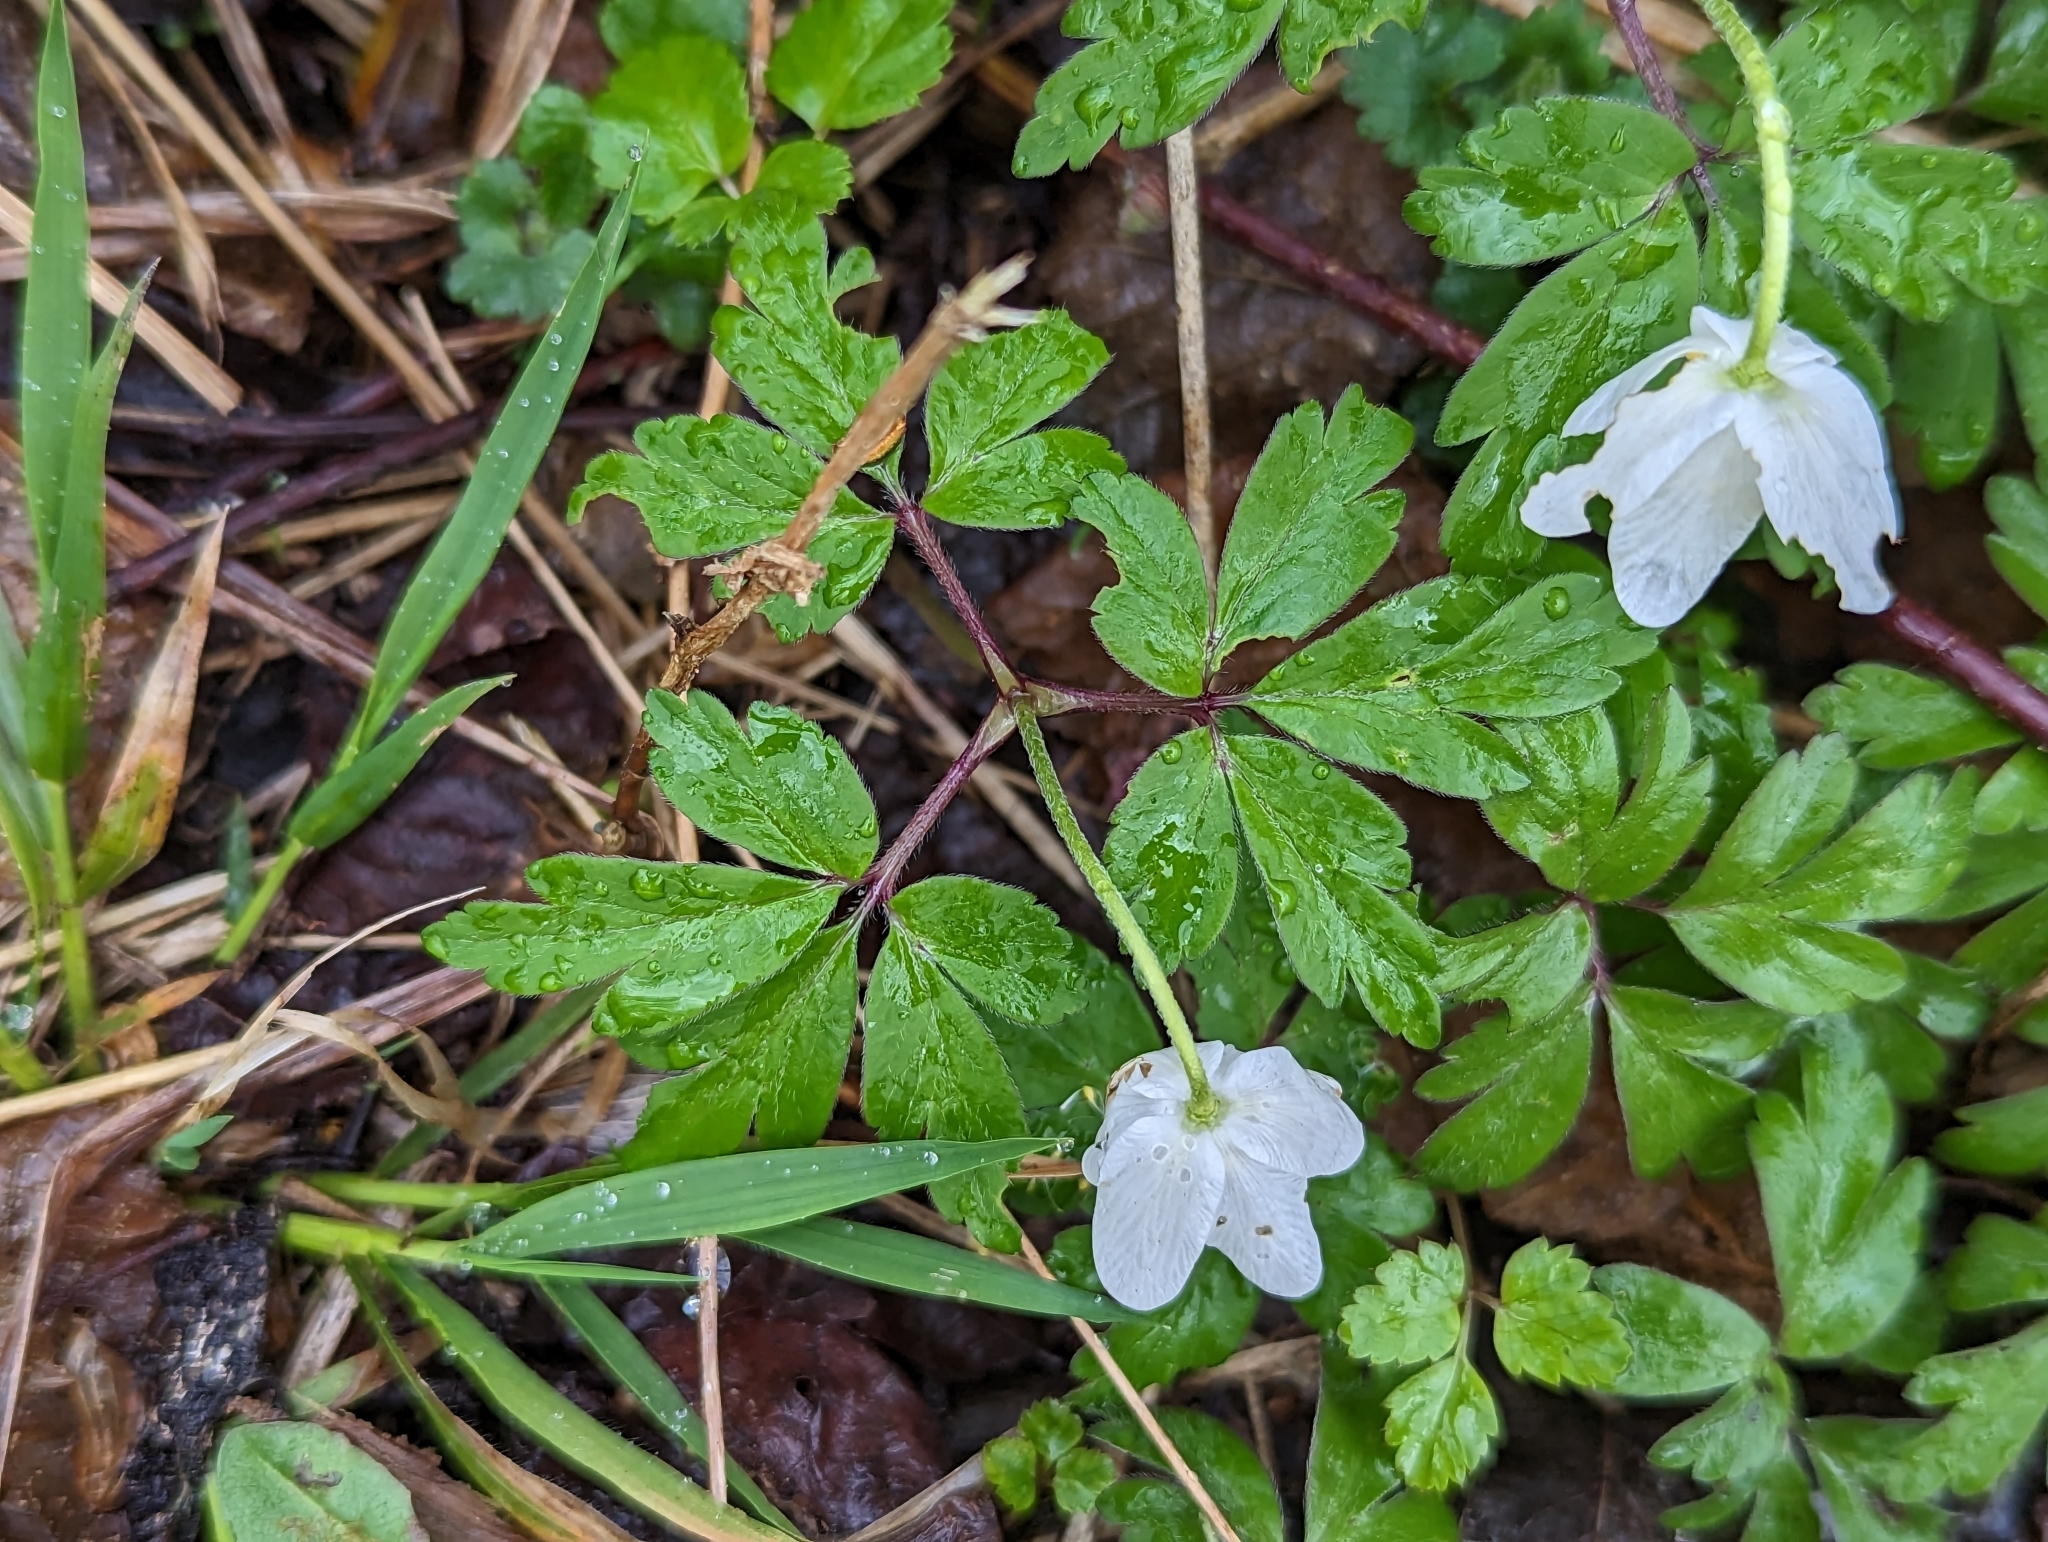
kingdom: Plantae
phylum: Tracheophyta
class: Magnoliopsida
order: Ranunculales
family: Ranunculaceae
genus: Anemone
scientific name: Anemone nemorosa
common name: Wood anemone
